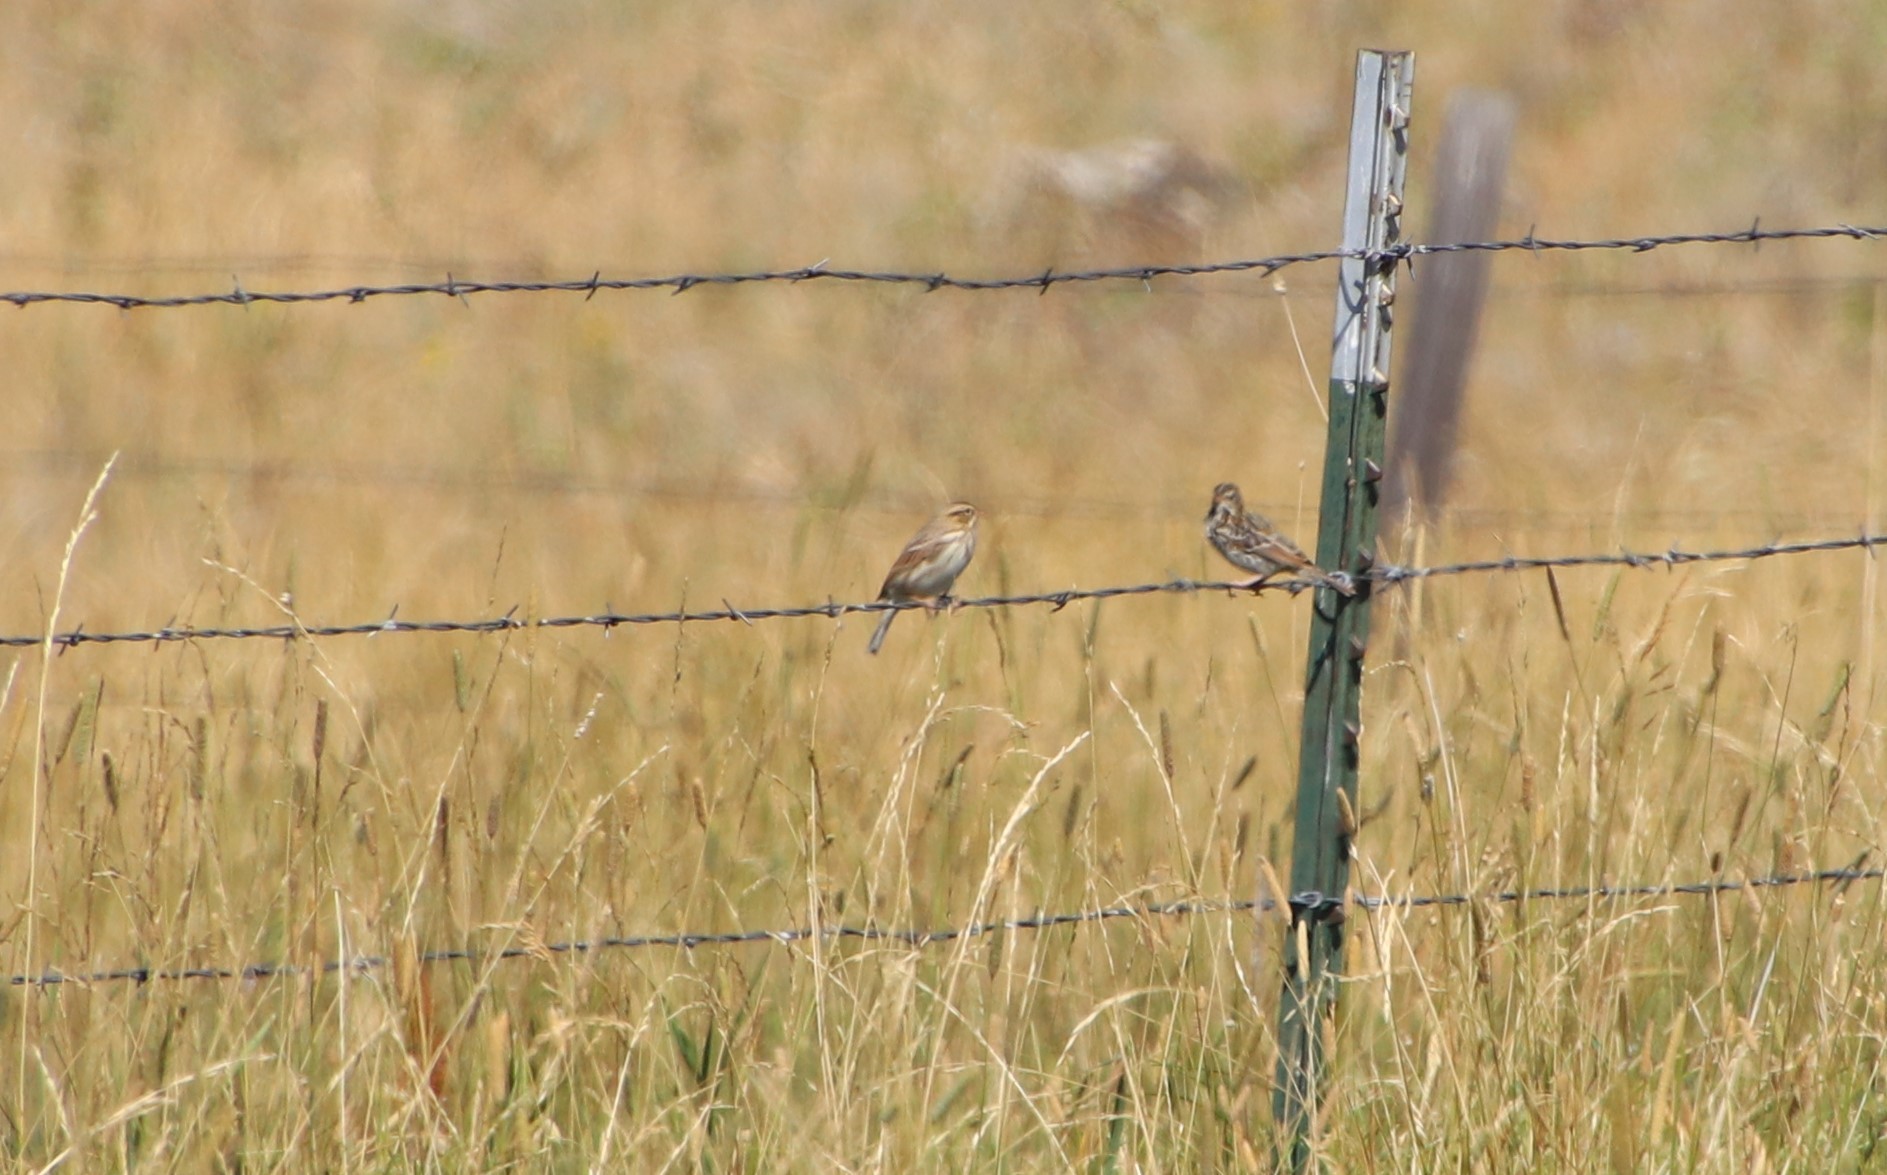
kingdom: Animalia
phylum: Chordata
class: Aves
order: Passeriformes
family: Passerellidae
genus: Passerculus
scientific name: Passerculus sandwichensis
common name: Savannah sparrow
